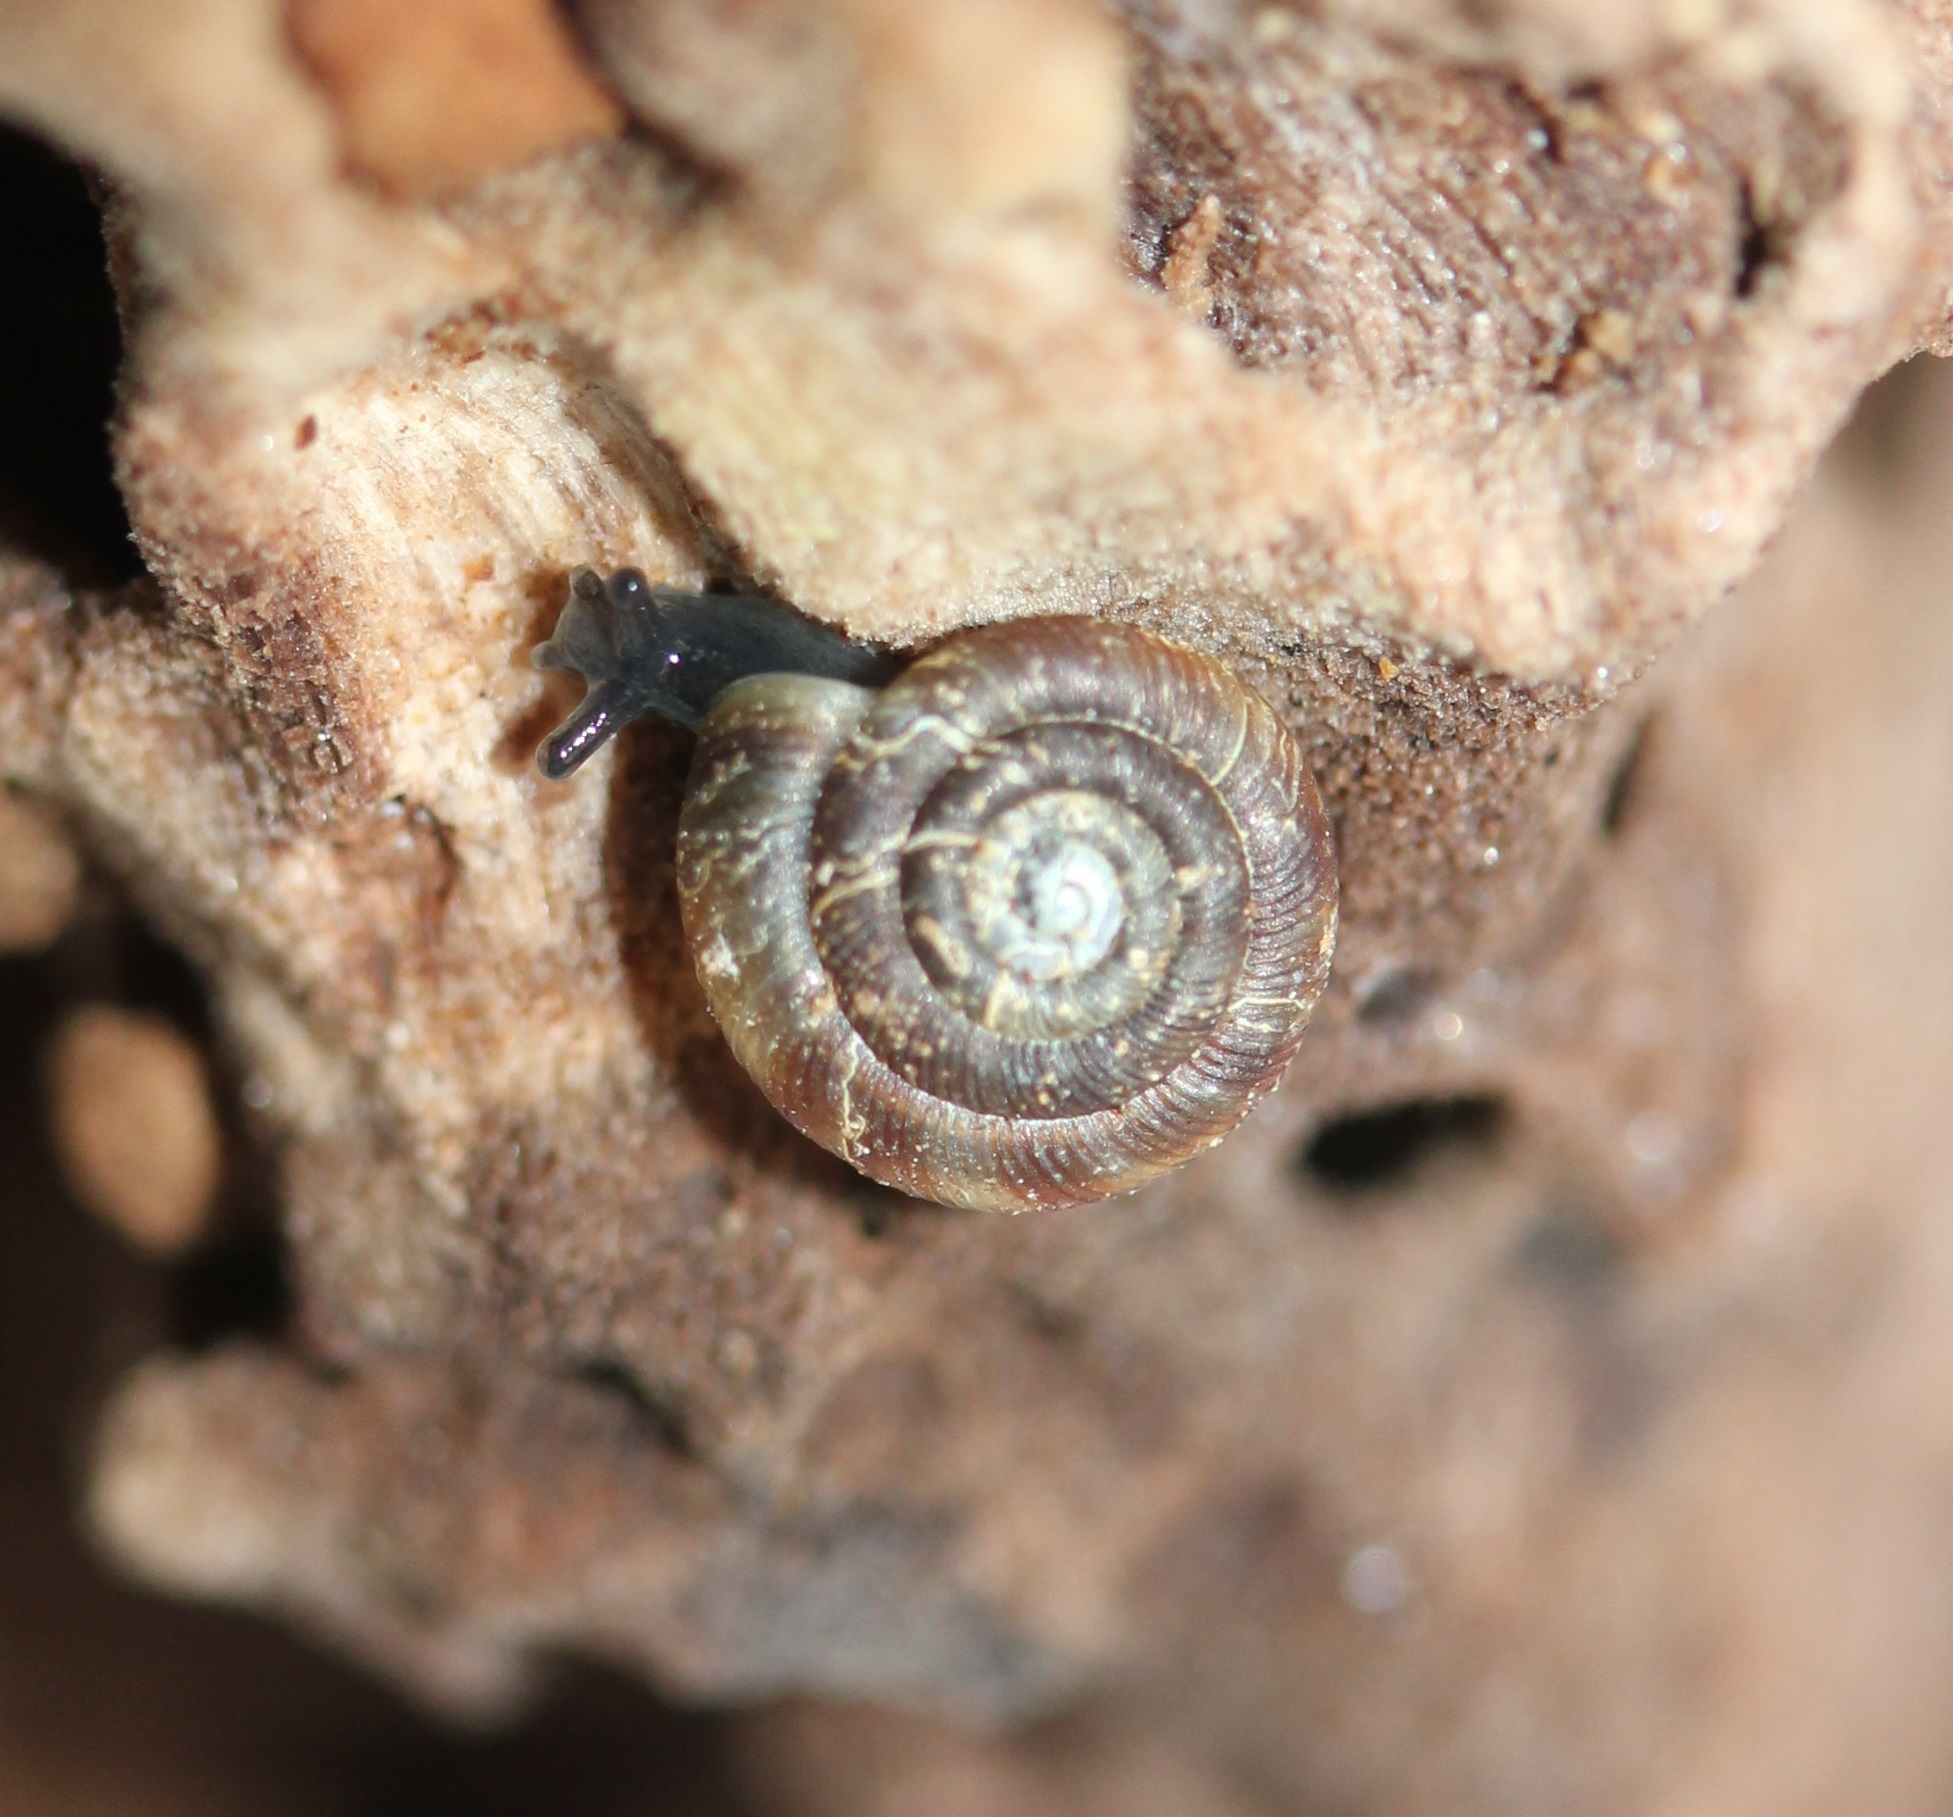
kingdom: Animalia
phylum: Mollusca
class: Gastropoda
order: Stylommatophora
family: Discidae
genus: Discus
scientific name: Discus rotundatus
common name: Rounded snail
